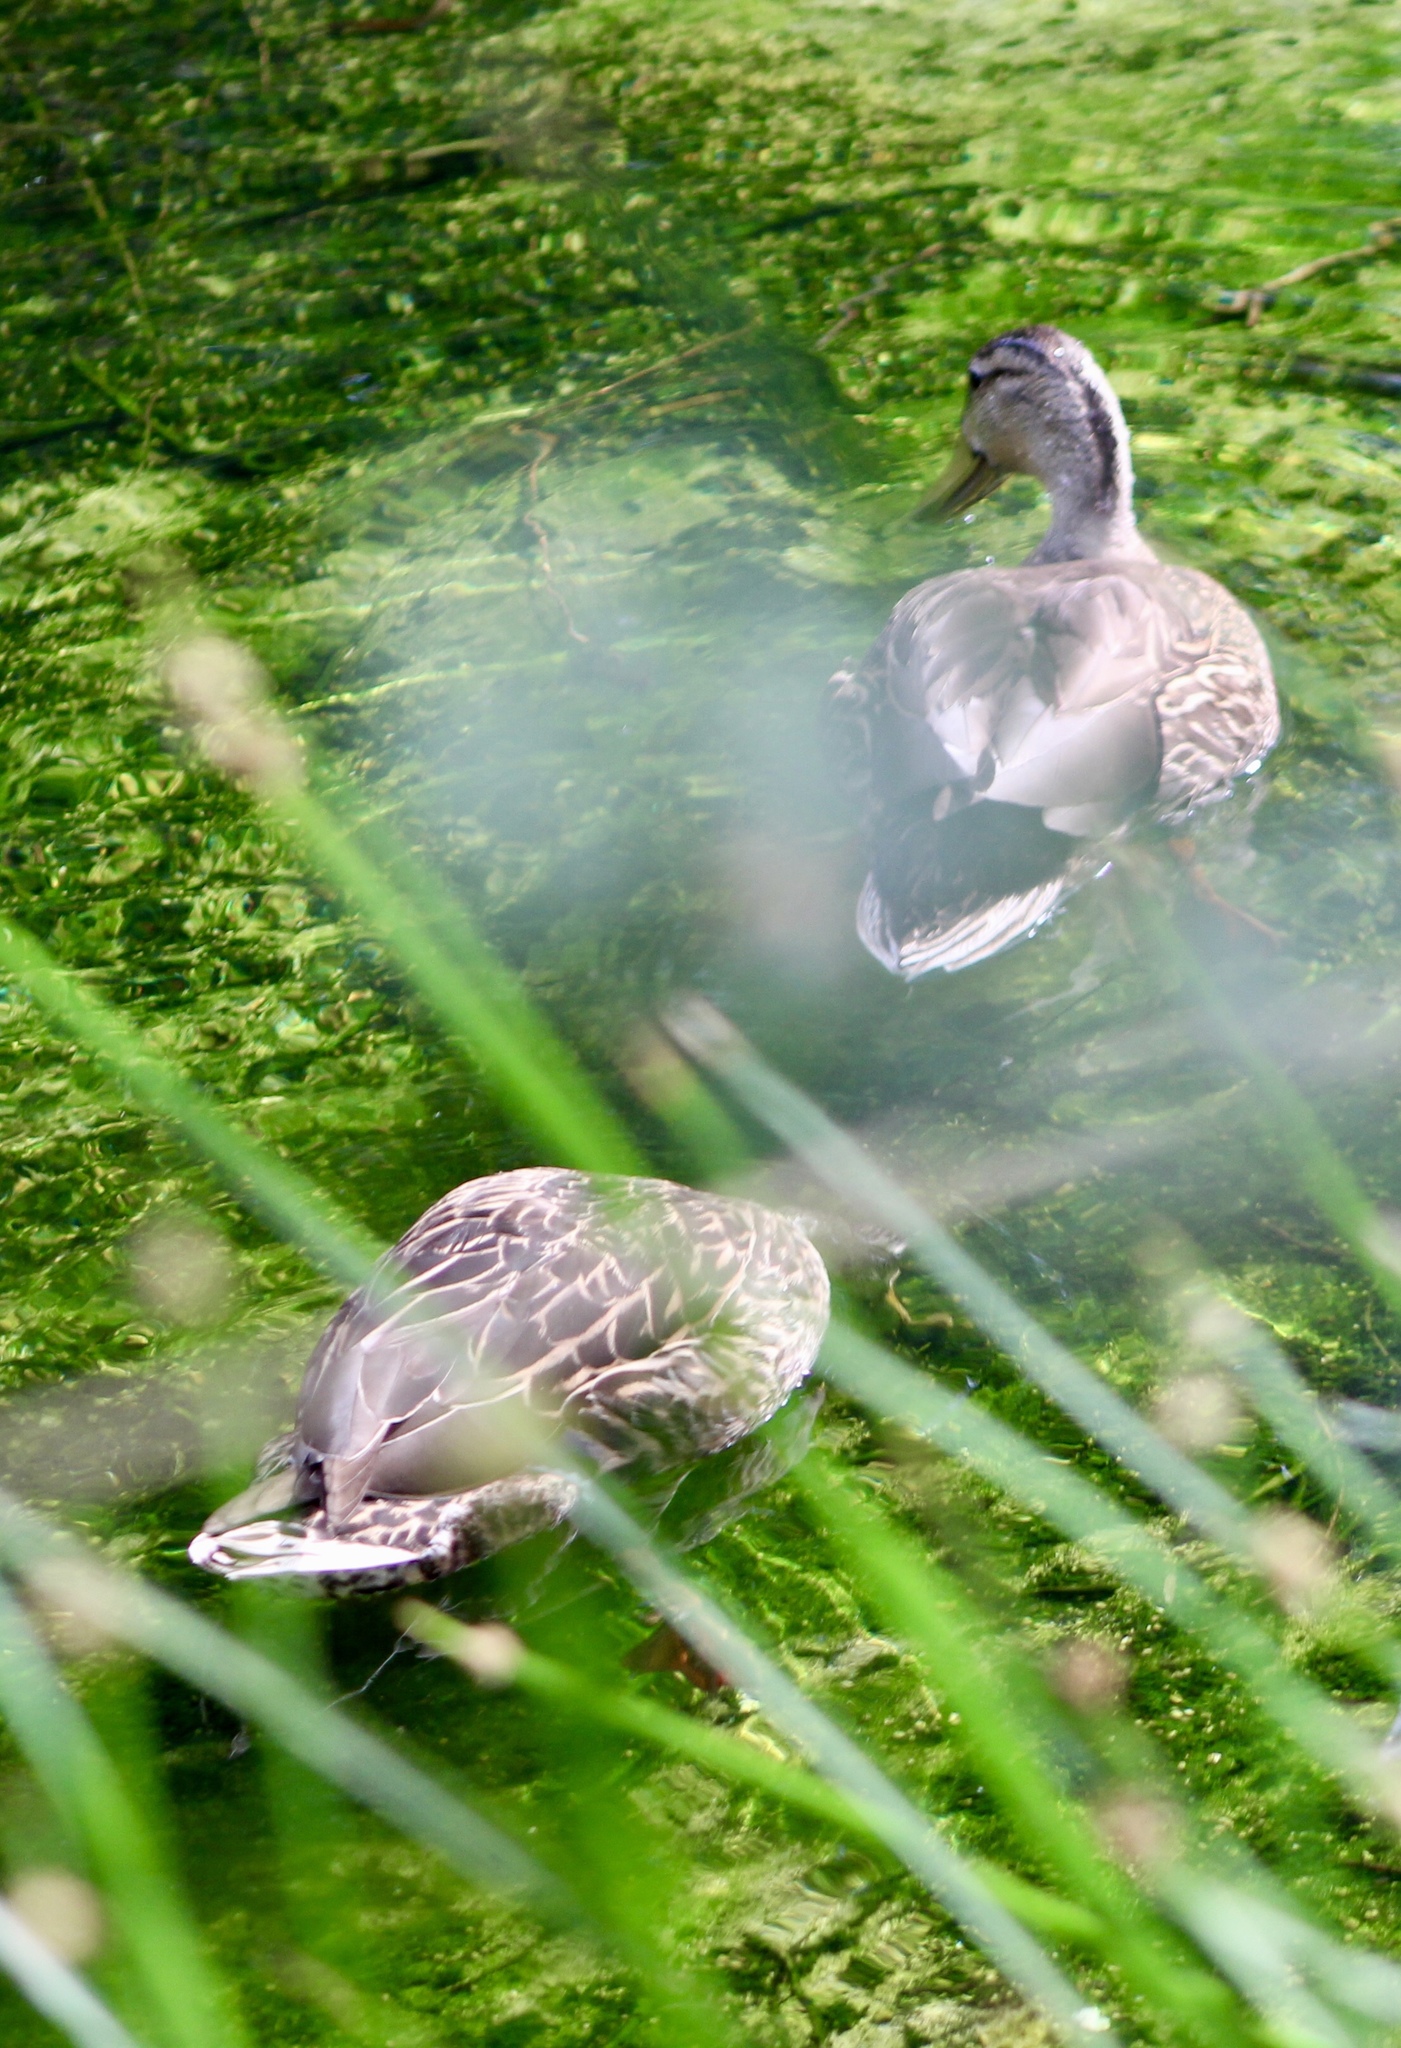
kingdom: Animalia
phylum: Chordata
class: Aves
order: Anseriformes
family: Anatidae
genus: Anas
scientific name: Anas
